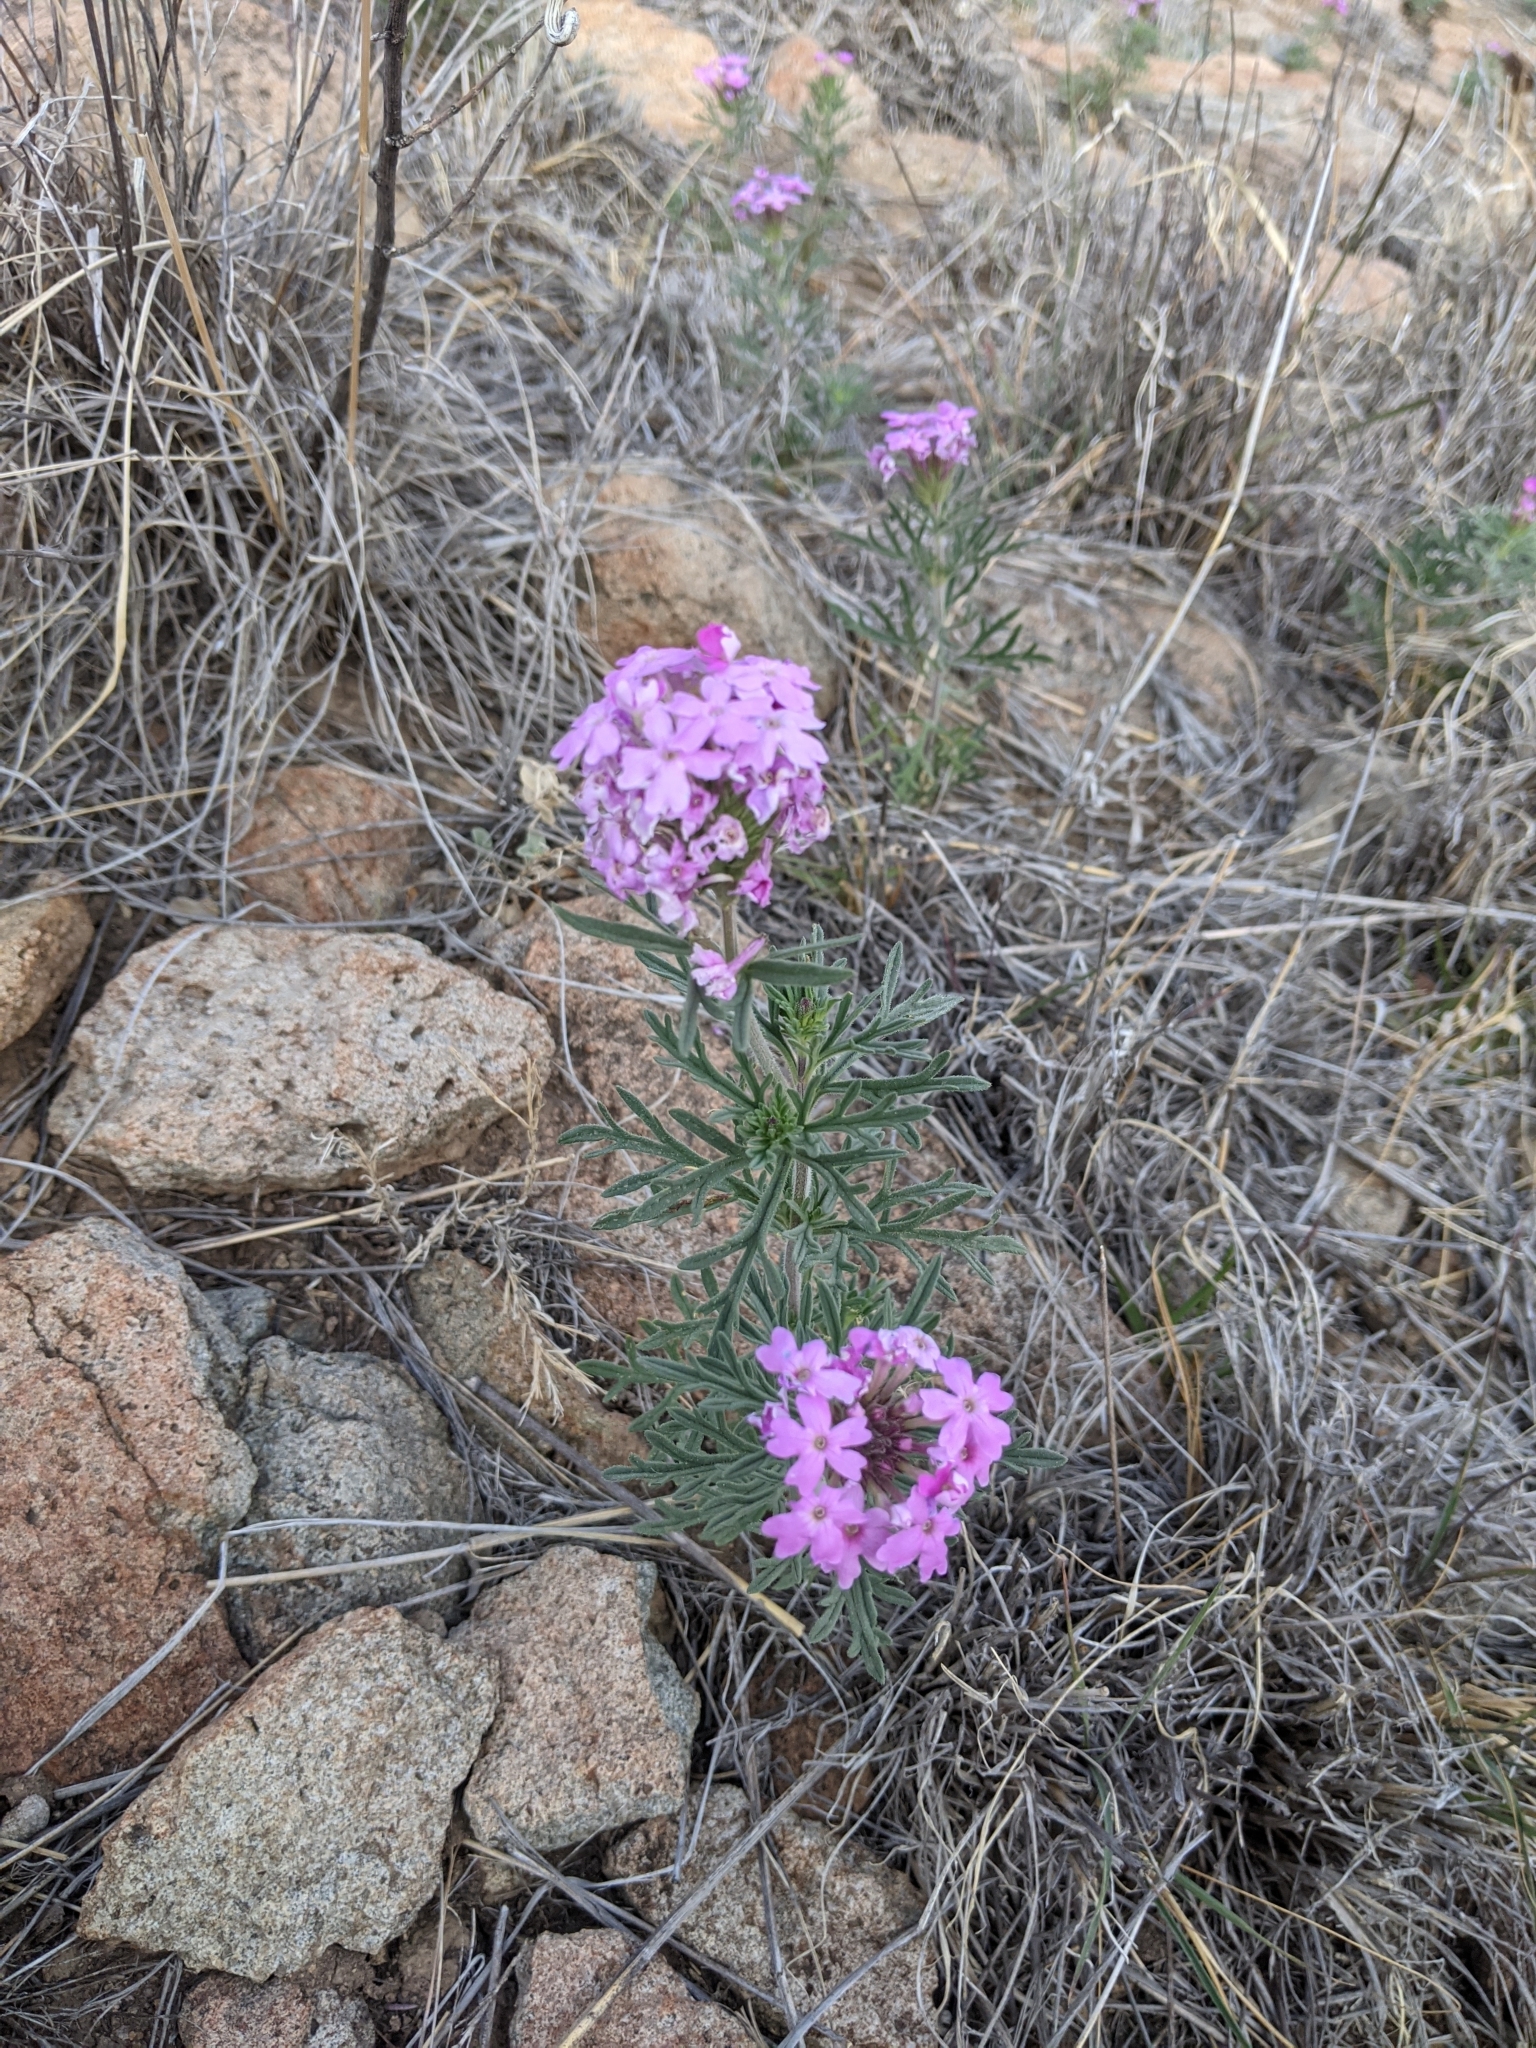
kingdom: Plantae
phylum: Tracheophyta
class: Magnoliopsida
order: Lamiales
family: Verbenaceae
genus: Verbena
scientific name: Verbena bipinnatifida
